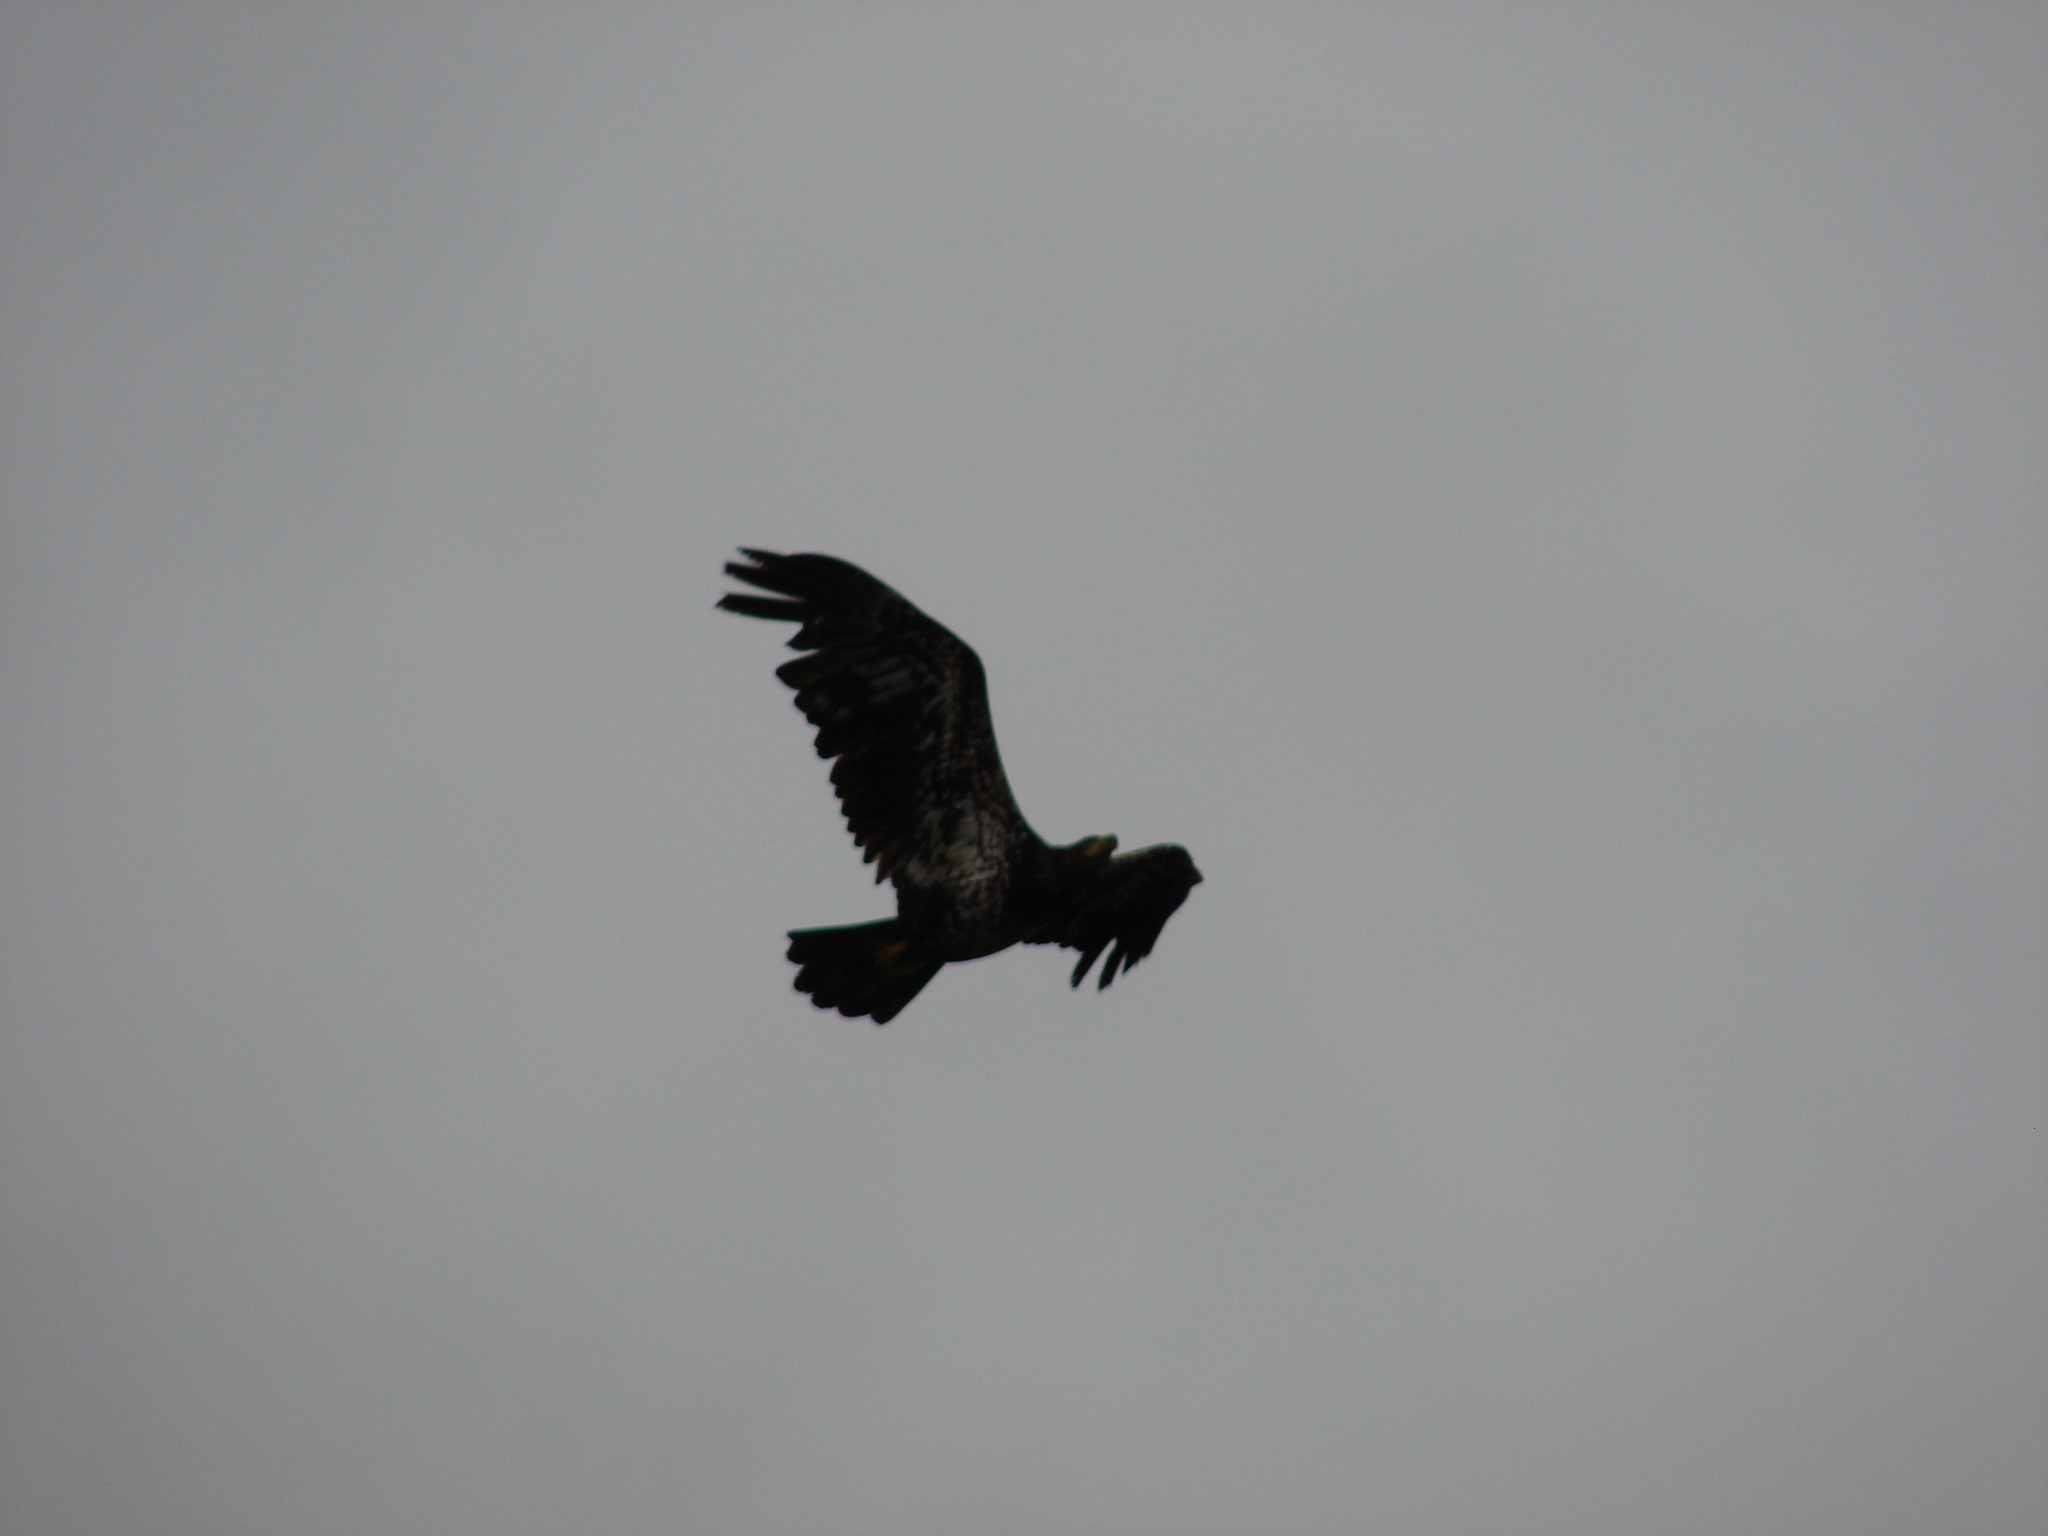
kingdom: Animalia
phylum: Chordata
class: Aves
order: Accipitriformes
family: Accipitridae
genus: Haliaeetus
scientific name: Haliaeetus leucocephalus
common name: Bald eagle
